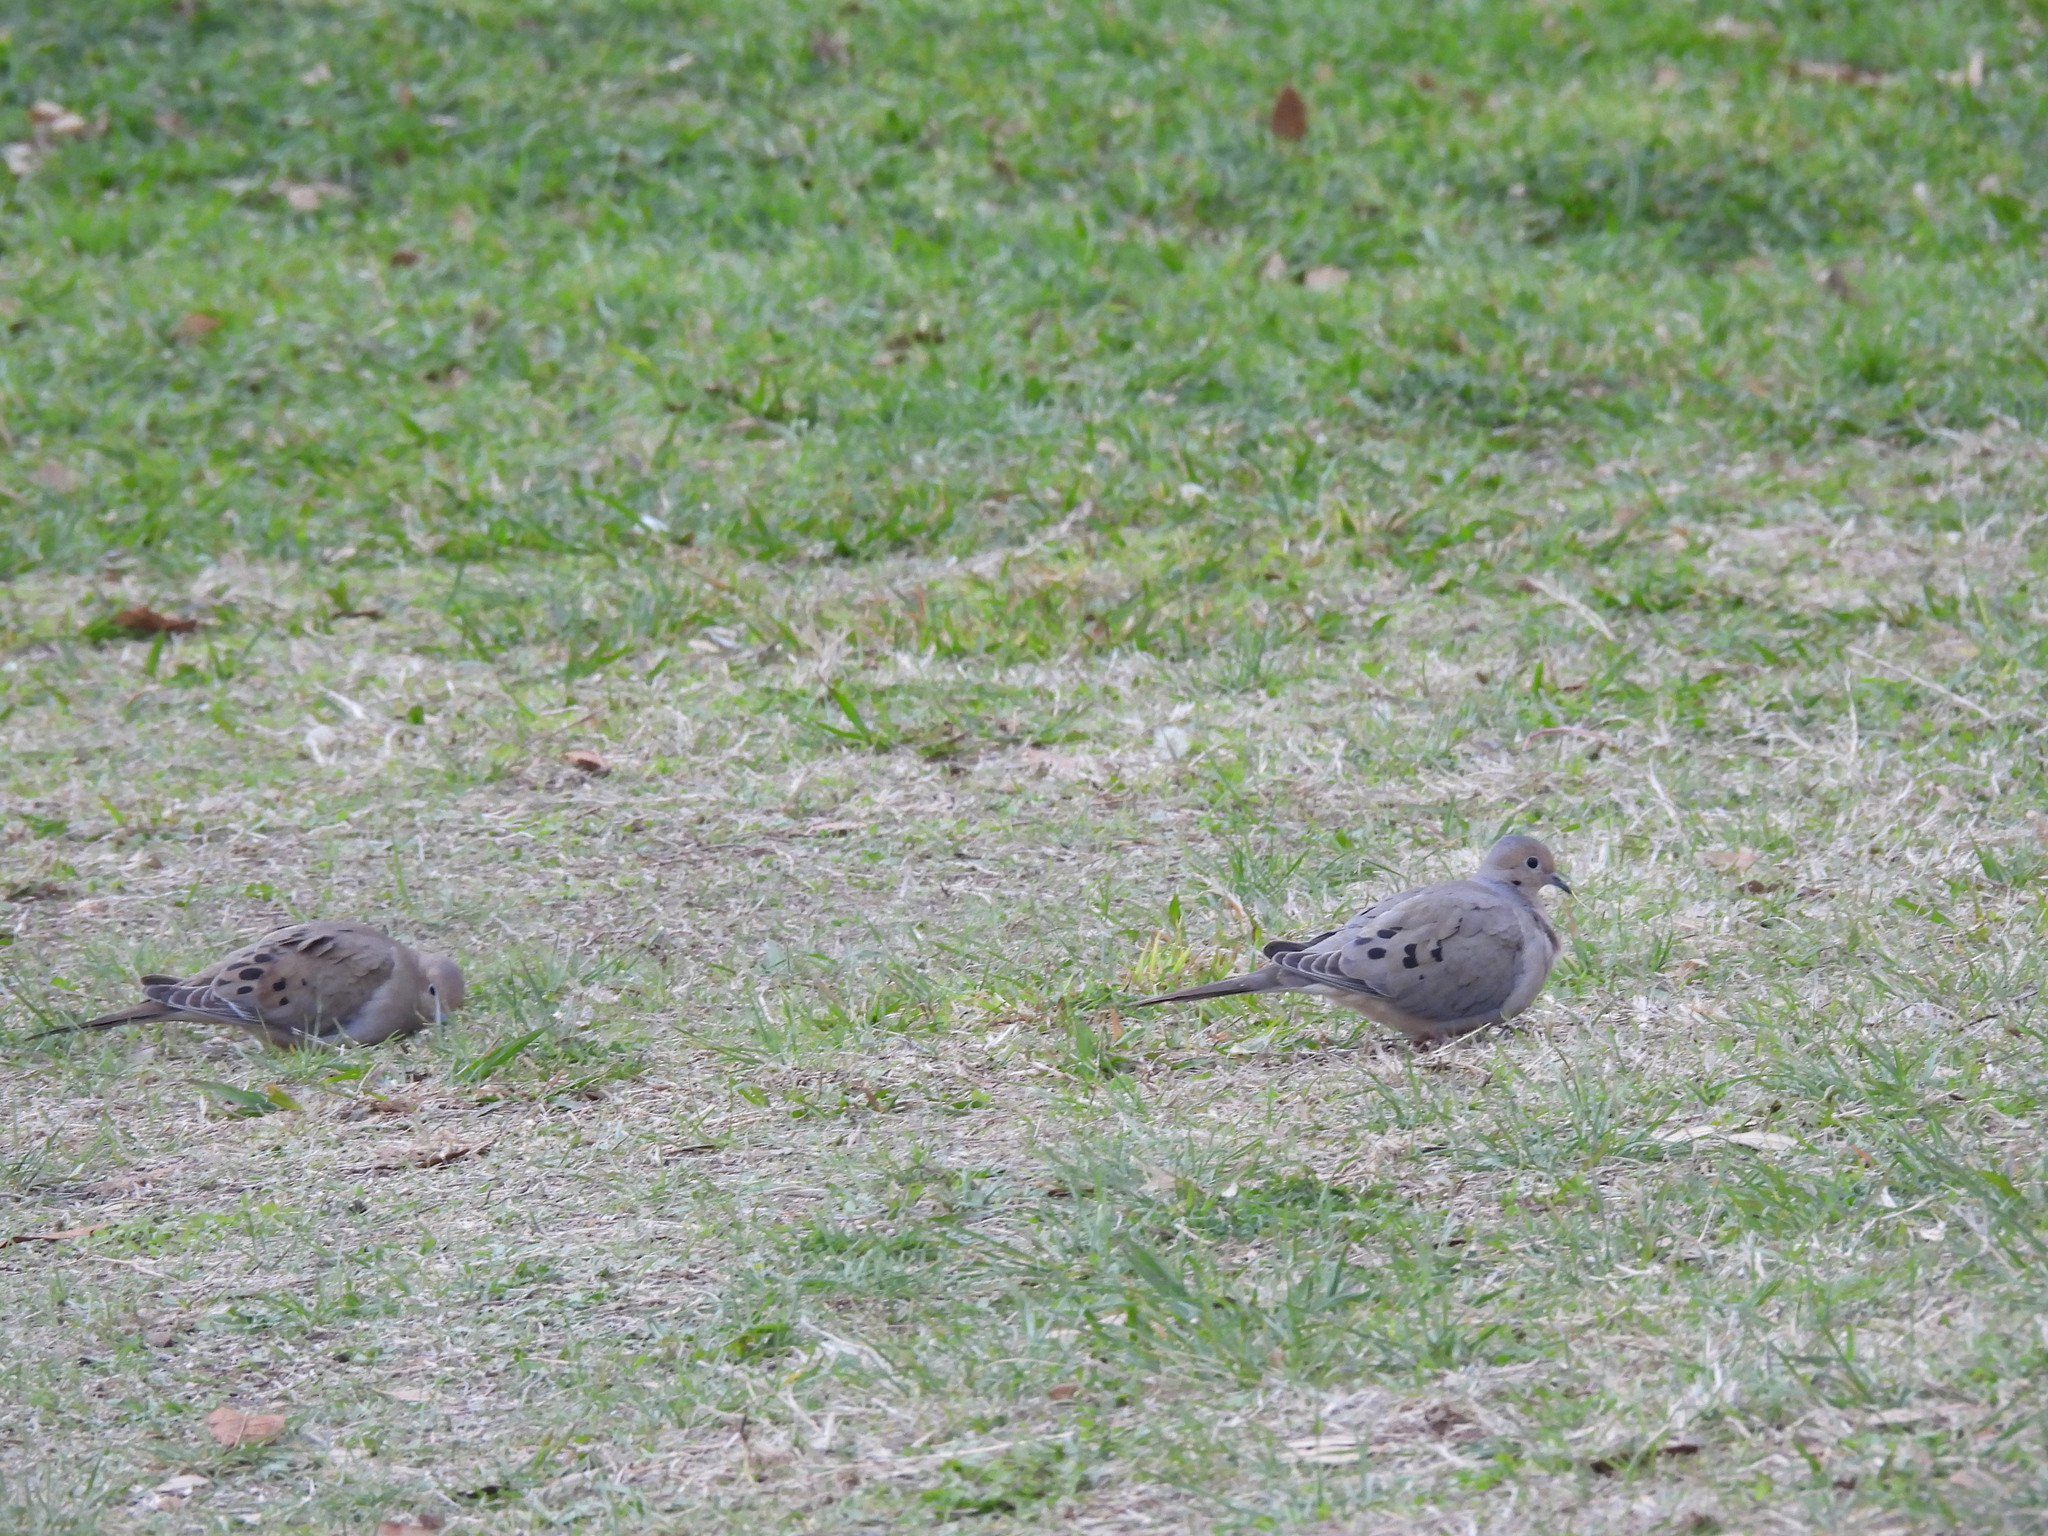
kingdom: Animalia
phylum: Chordata
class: Aves
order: Columbiformes
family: Columbidae
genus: Zenaida
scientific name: Zenaida macroura
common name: Mourning dove
